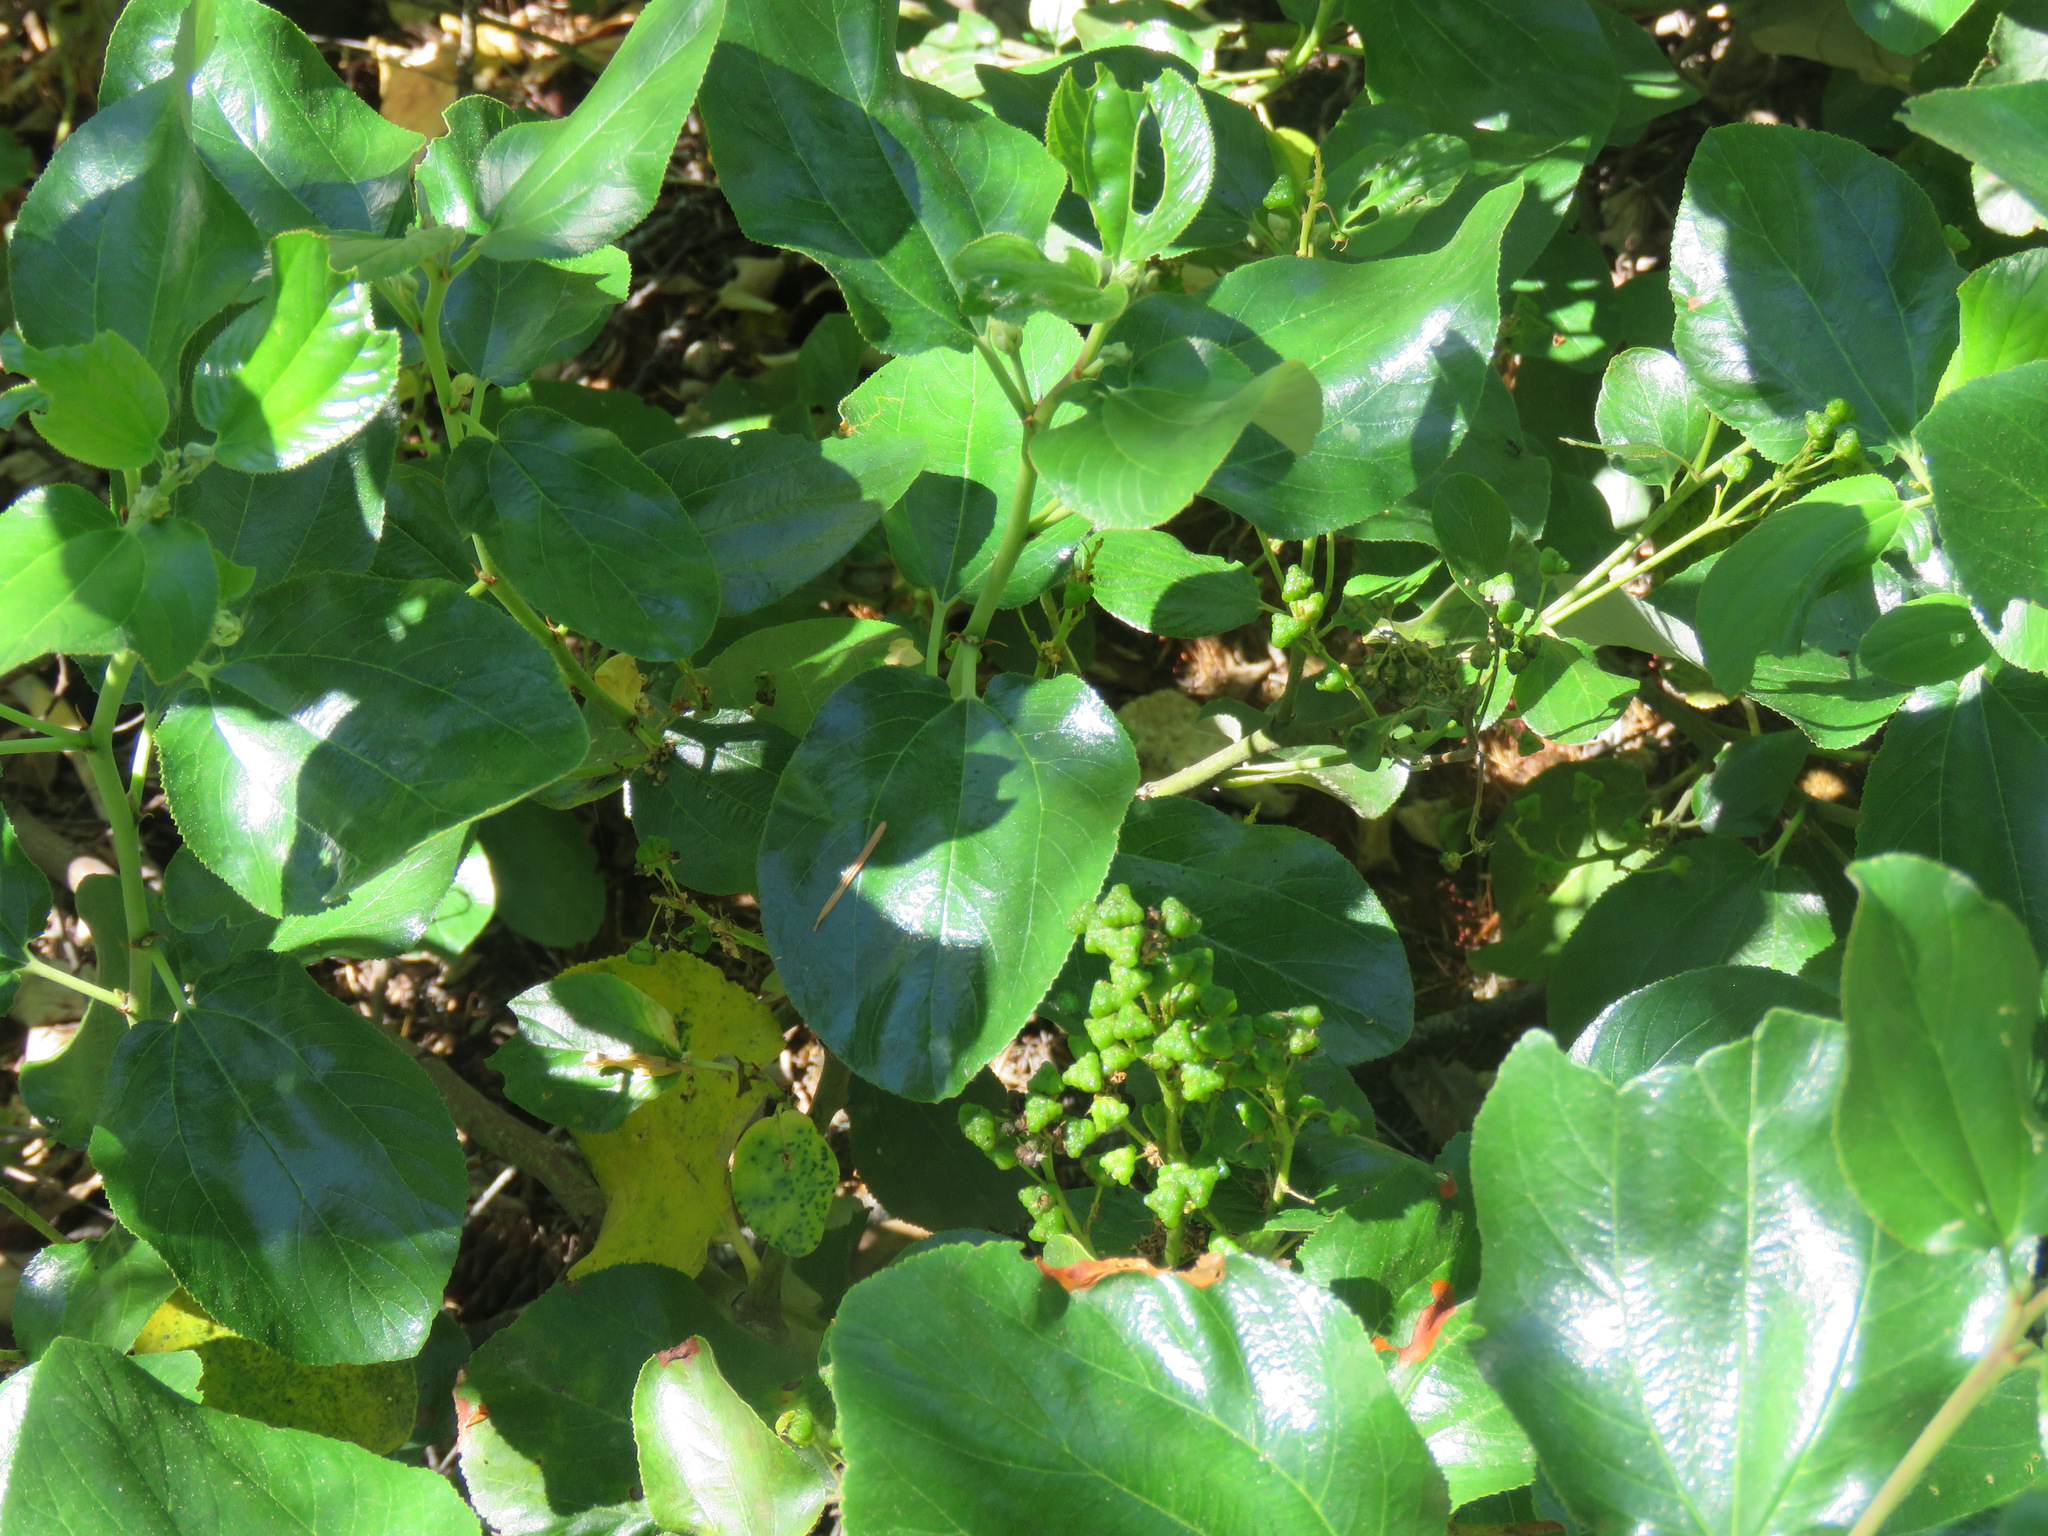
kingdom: Plantae
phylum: Tracheophyta
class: Magnoliopsida
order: Rosales
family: Rhamnaceae
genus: Ceanothus
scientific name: Ceanothus velutinus
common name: Snowbrush
